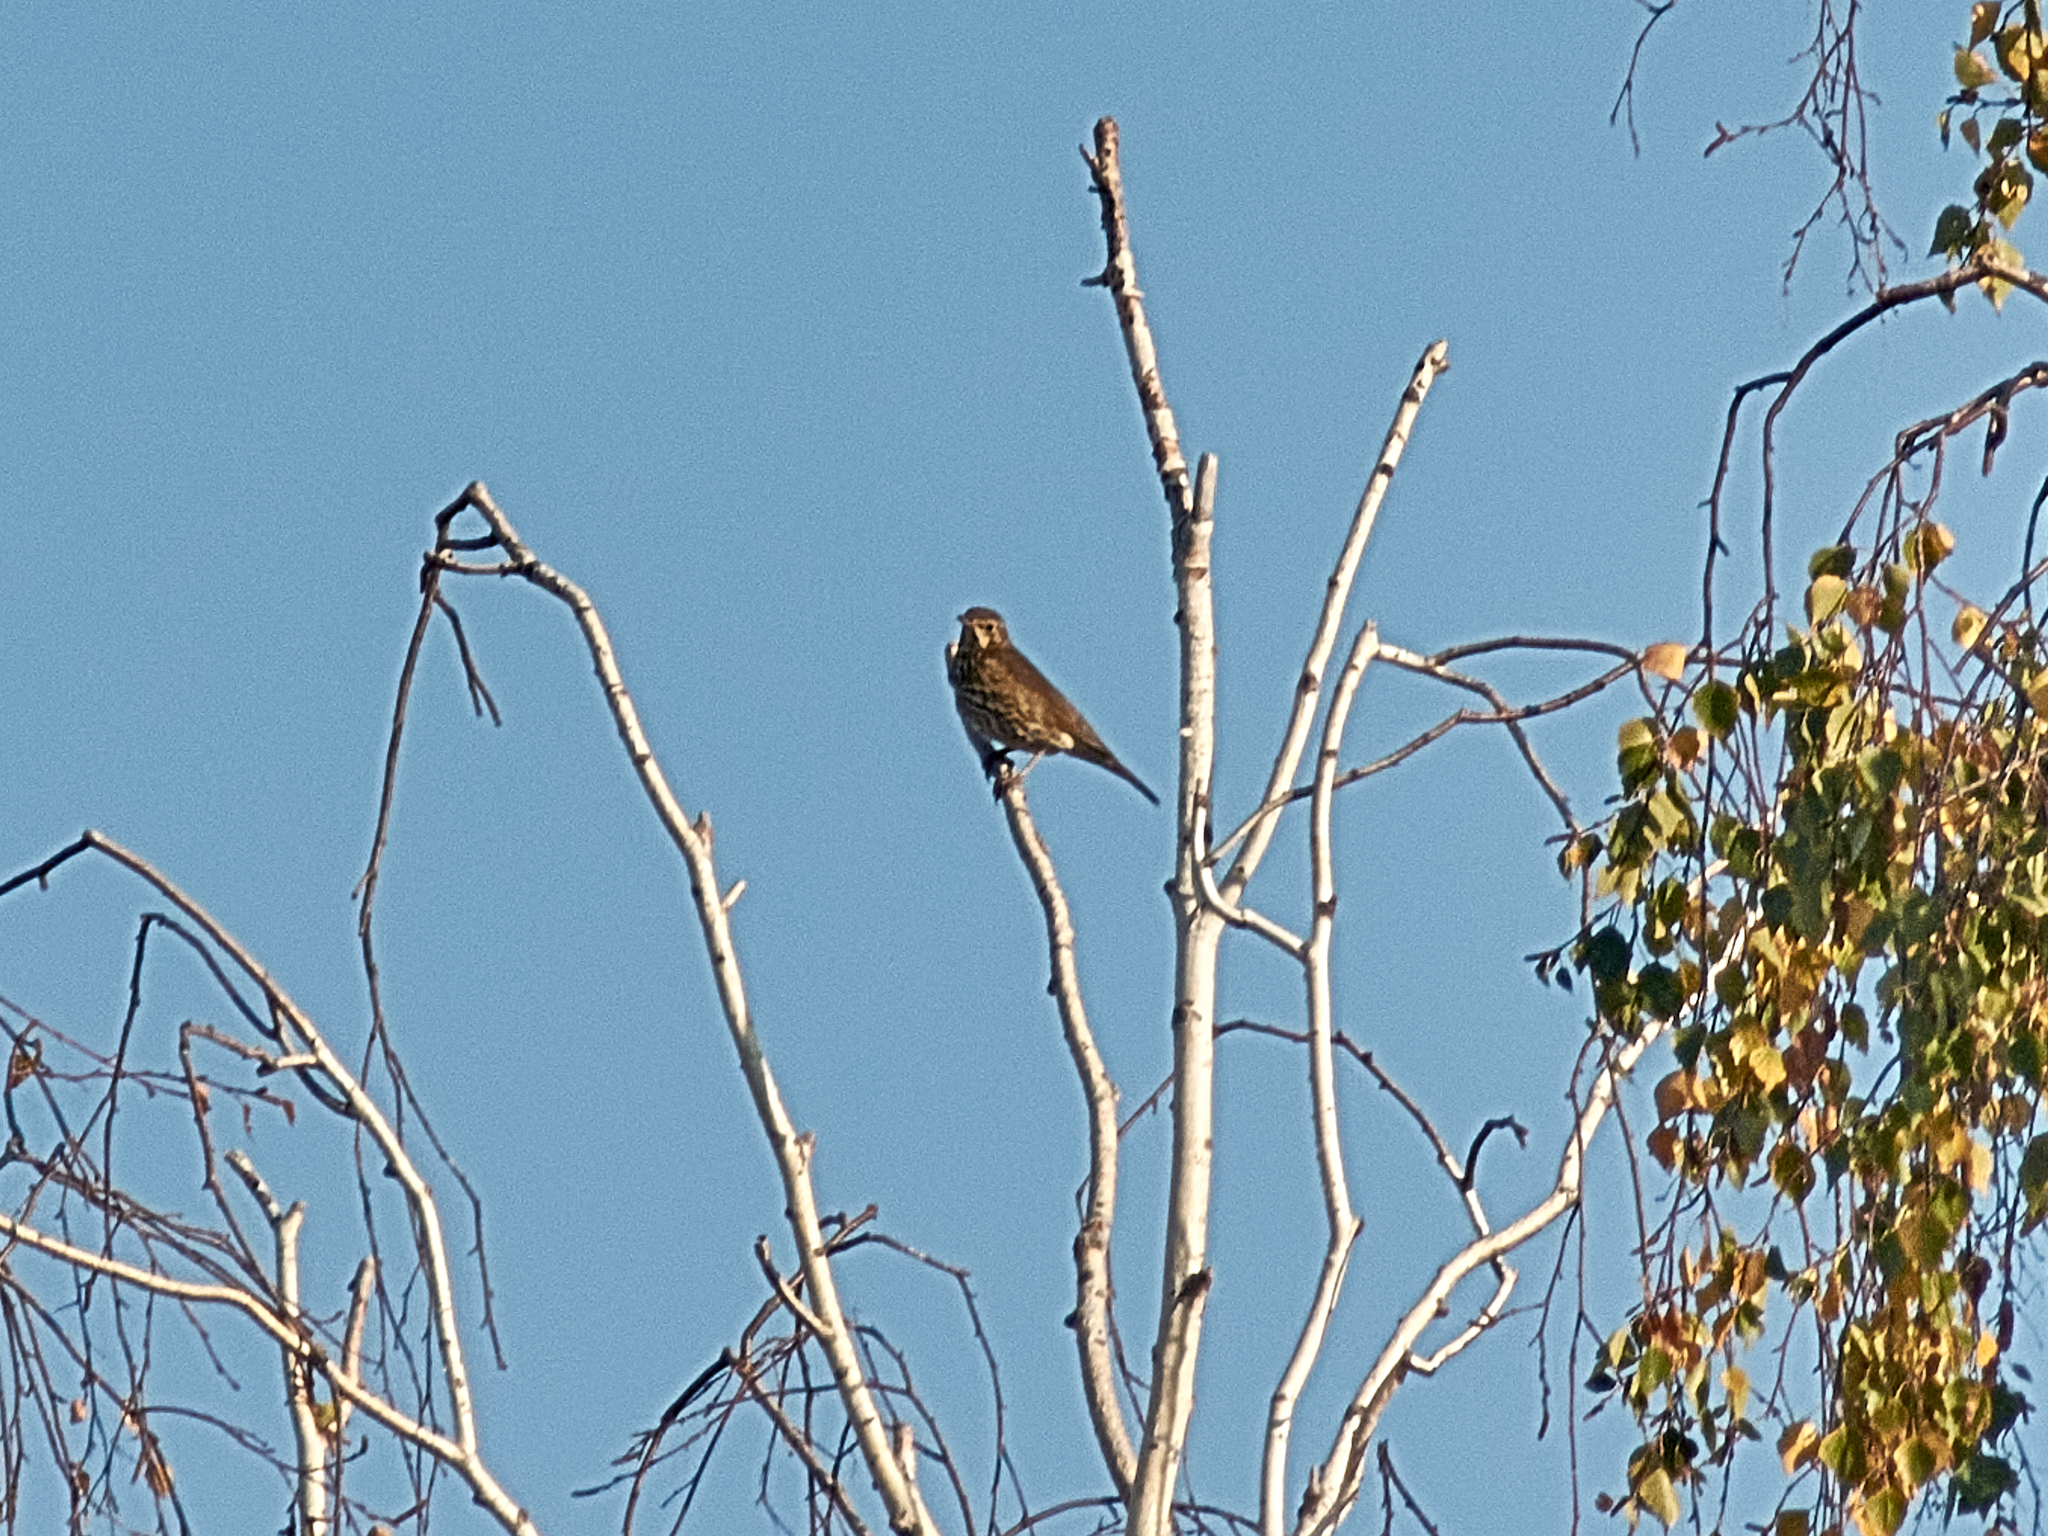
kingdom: Animalia
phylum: Chordata
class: Aves
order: Passeriformes
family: Turdidae
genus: Turdus
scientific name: Turdus philomelos
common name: Song thrush
